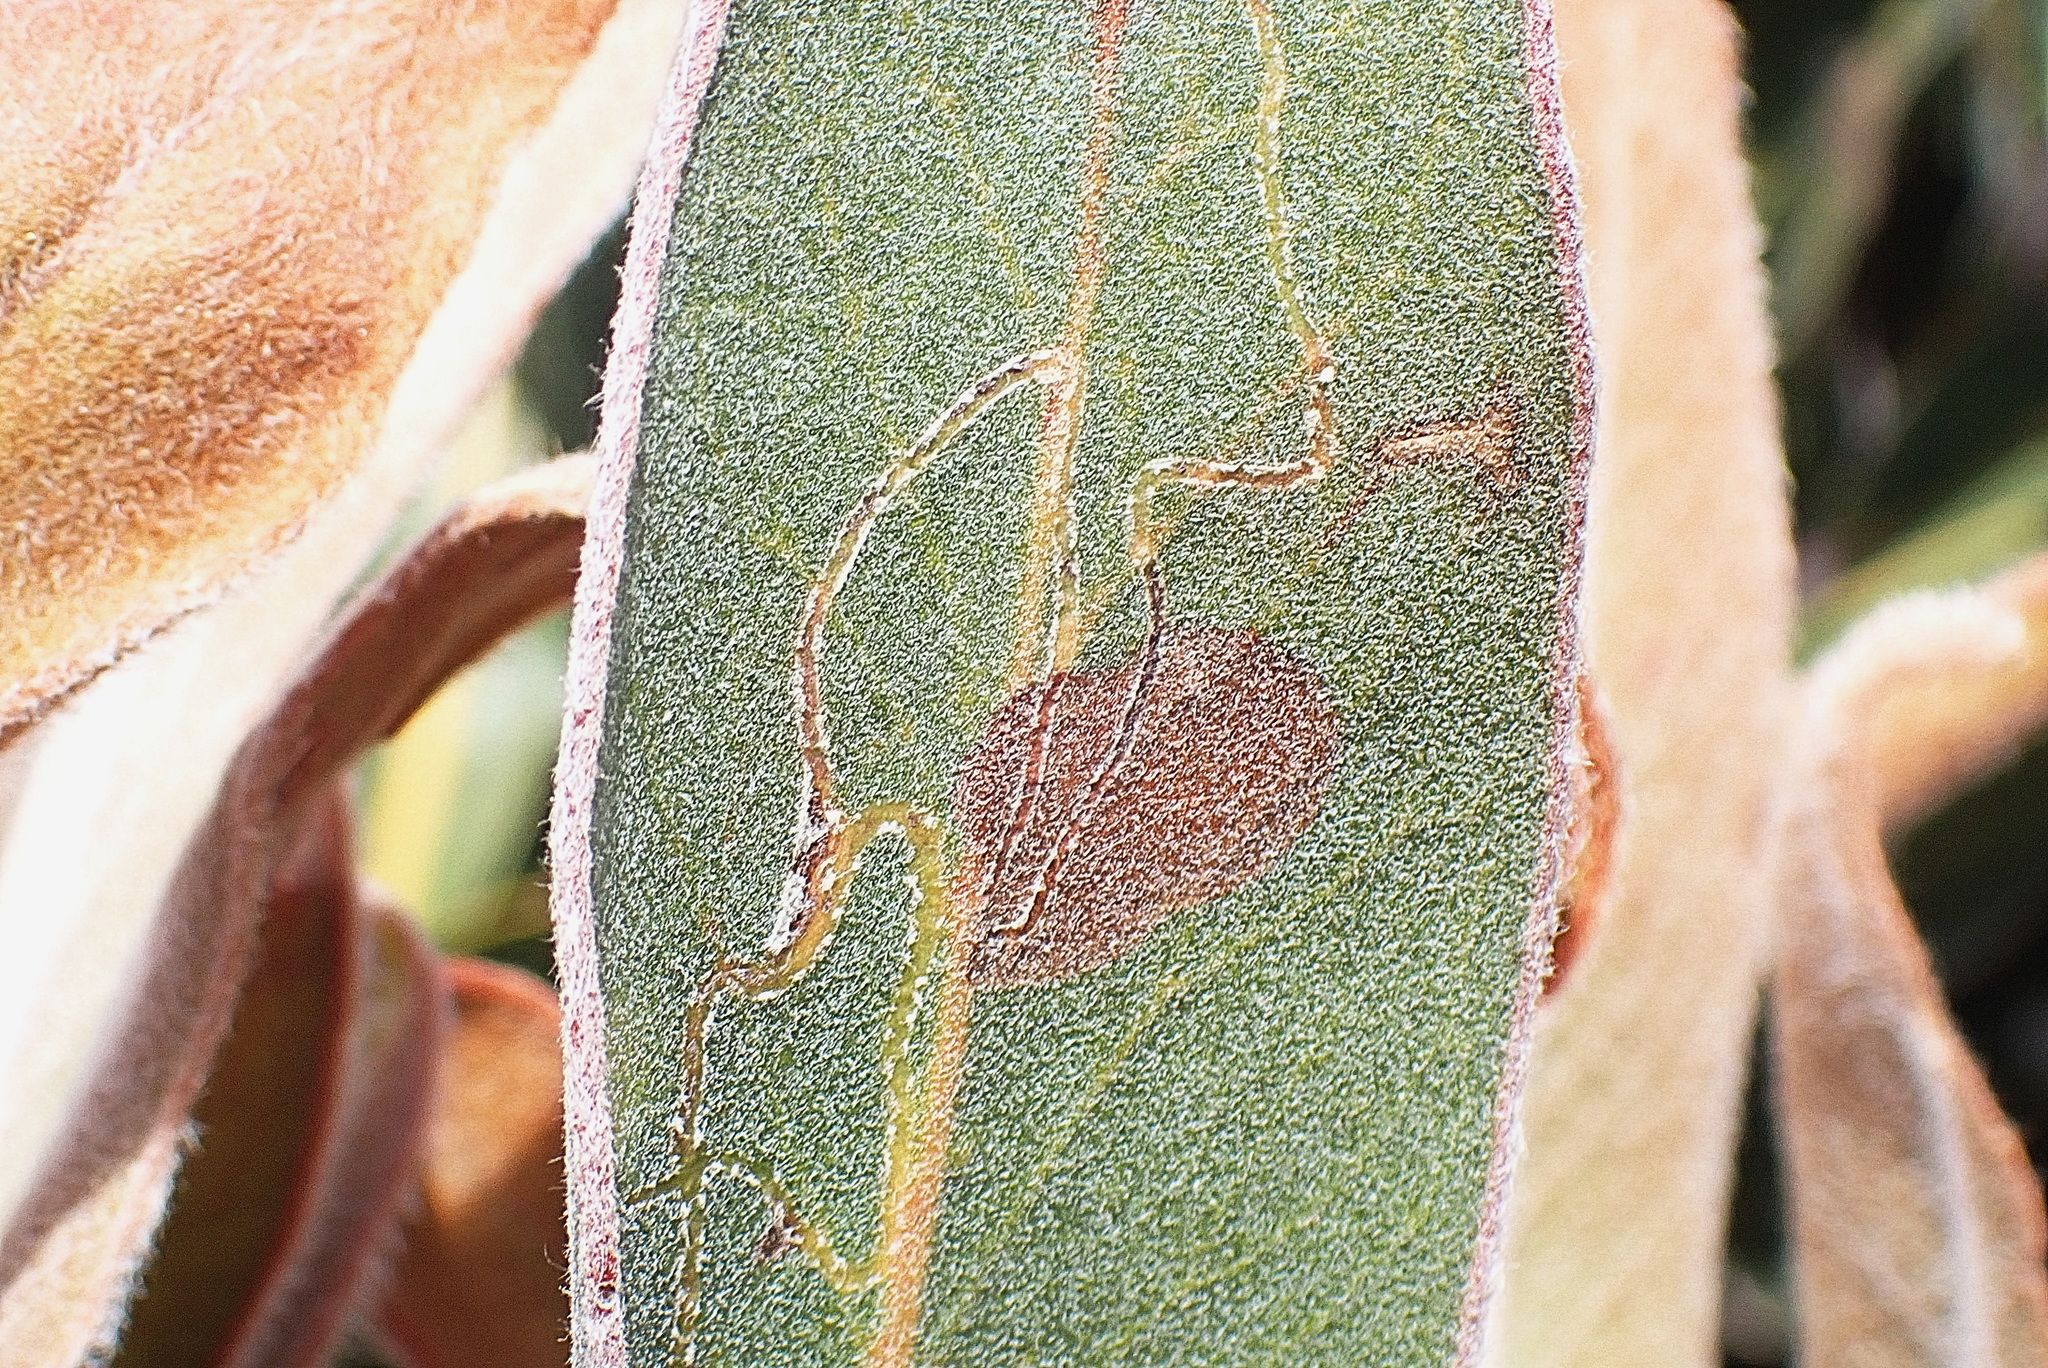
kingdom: Plantae
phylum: Tracheophyta
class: Magnoliopsida
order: Proteales
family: Proteaceae
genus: Protea
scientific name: Protea lorifolia
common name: Strap-leaved protea
